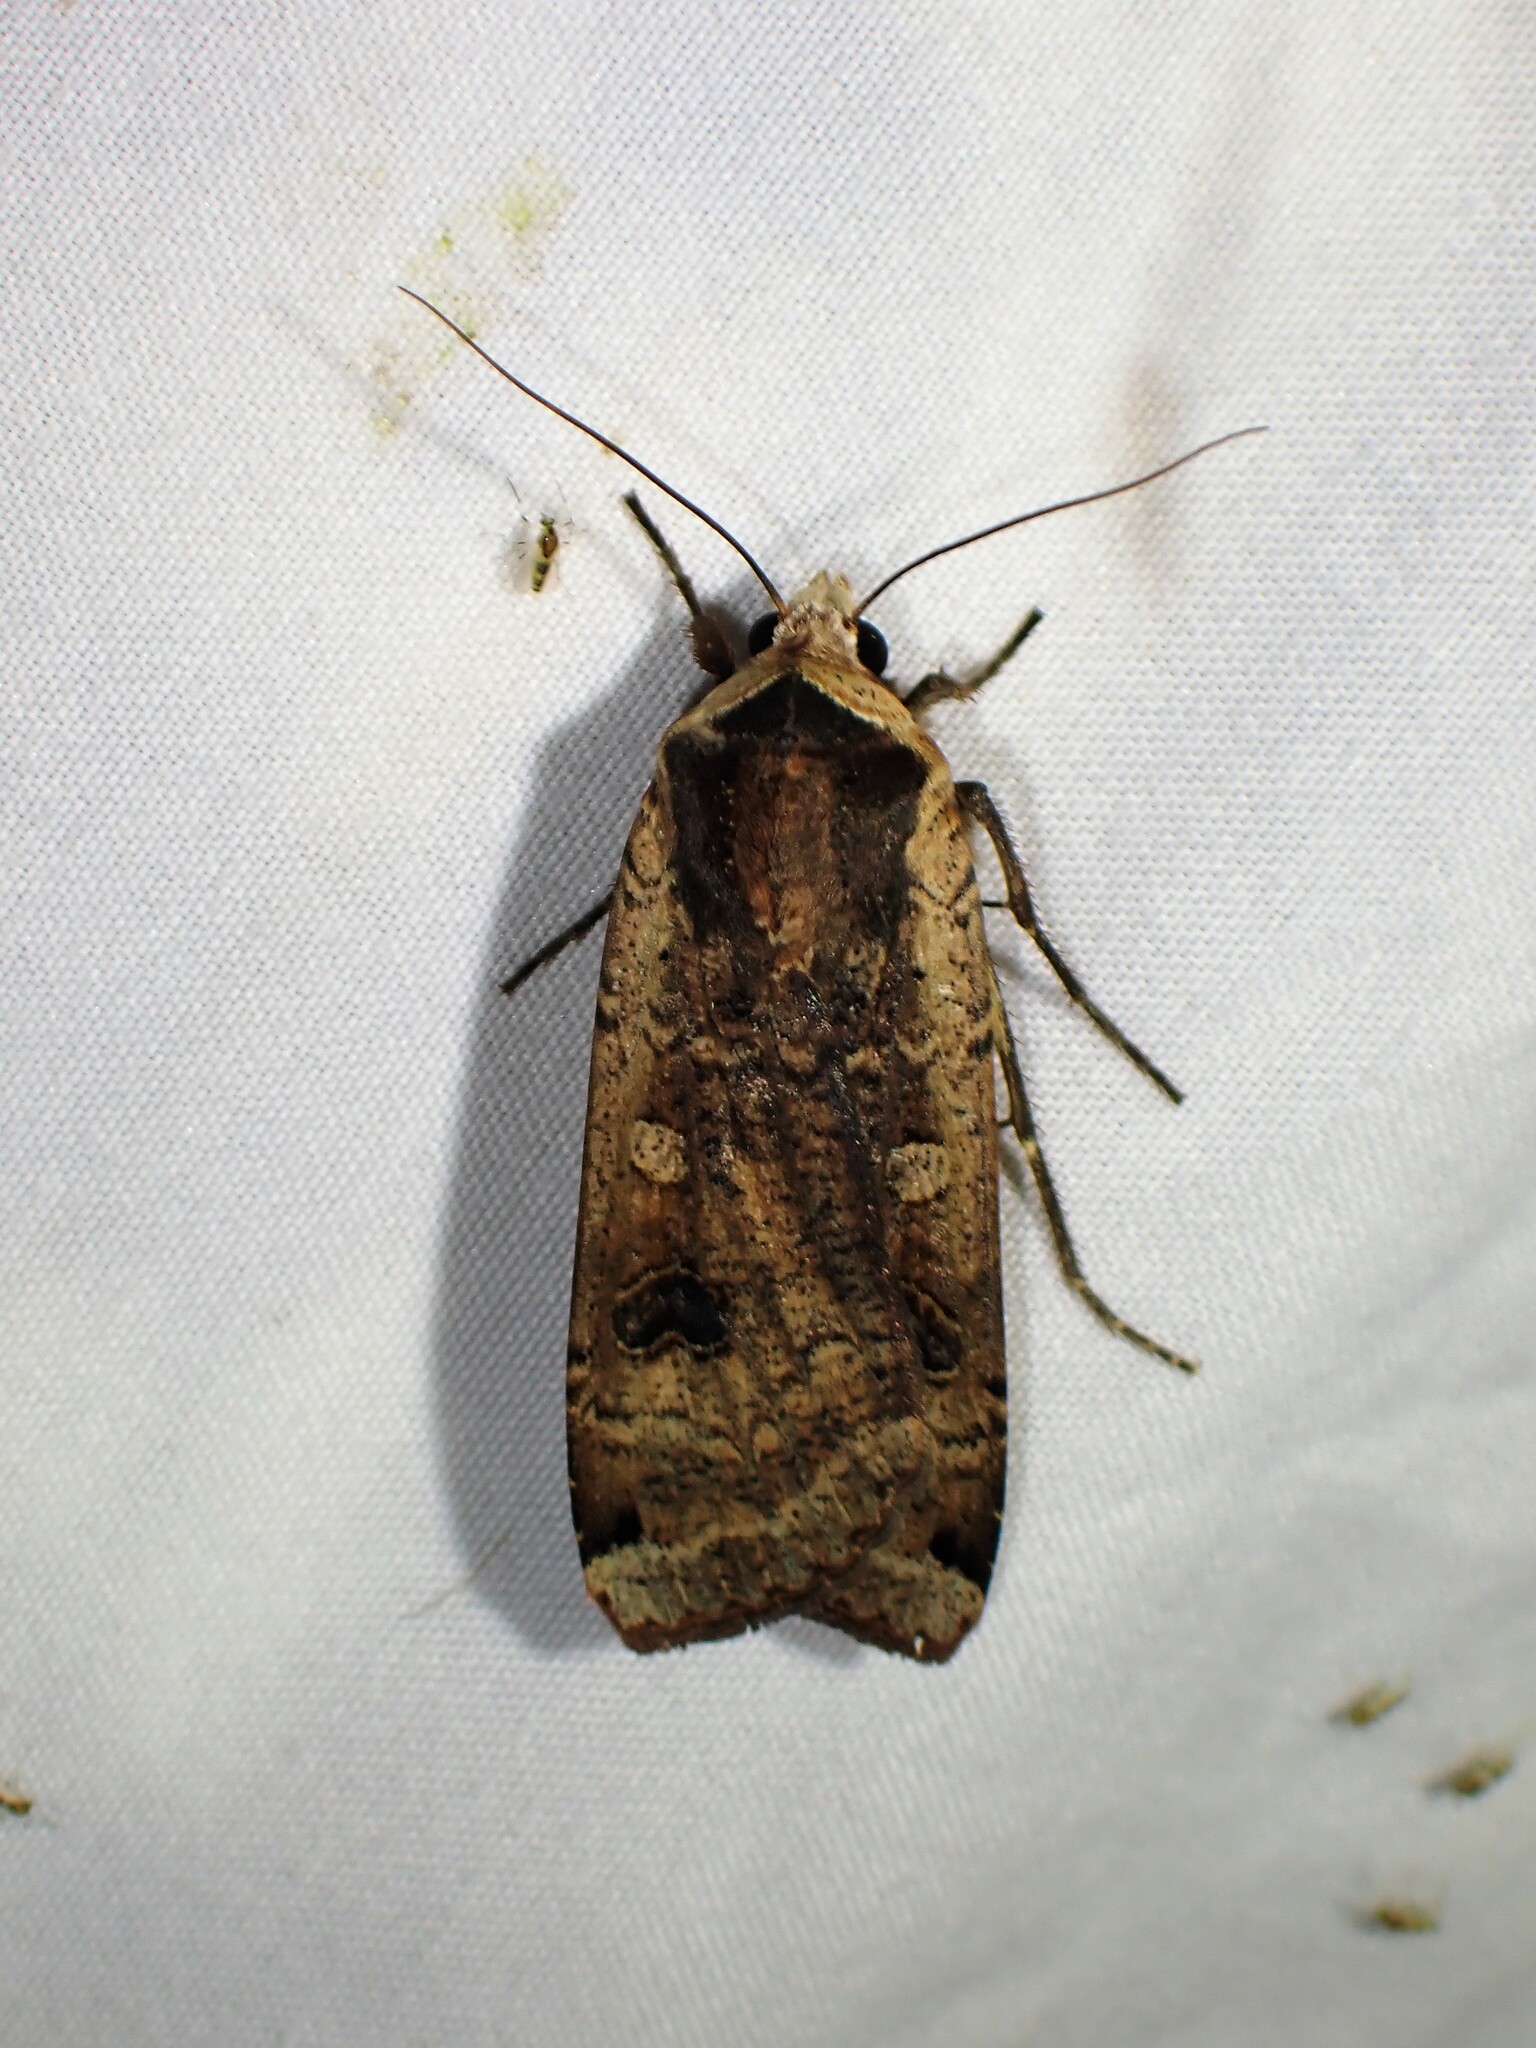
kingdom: Animalia
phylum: Arthropoda
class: Insecta
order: Lepidoptera
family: Noctuidae
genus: Noctua
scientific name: Noctua pronuba
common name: Large yellow underwing
